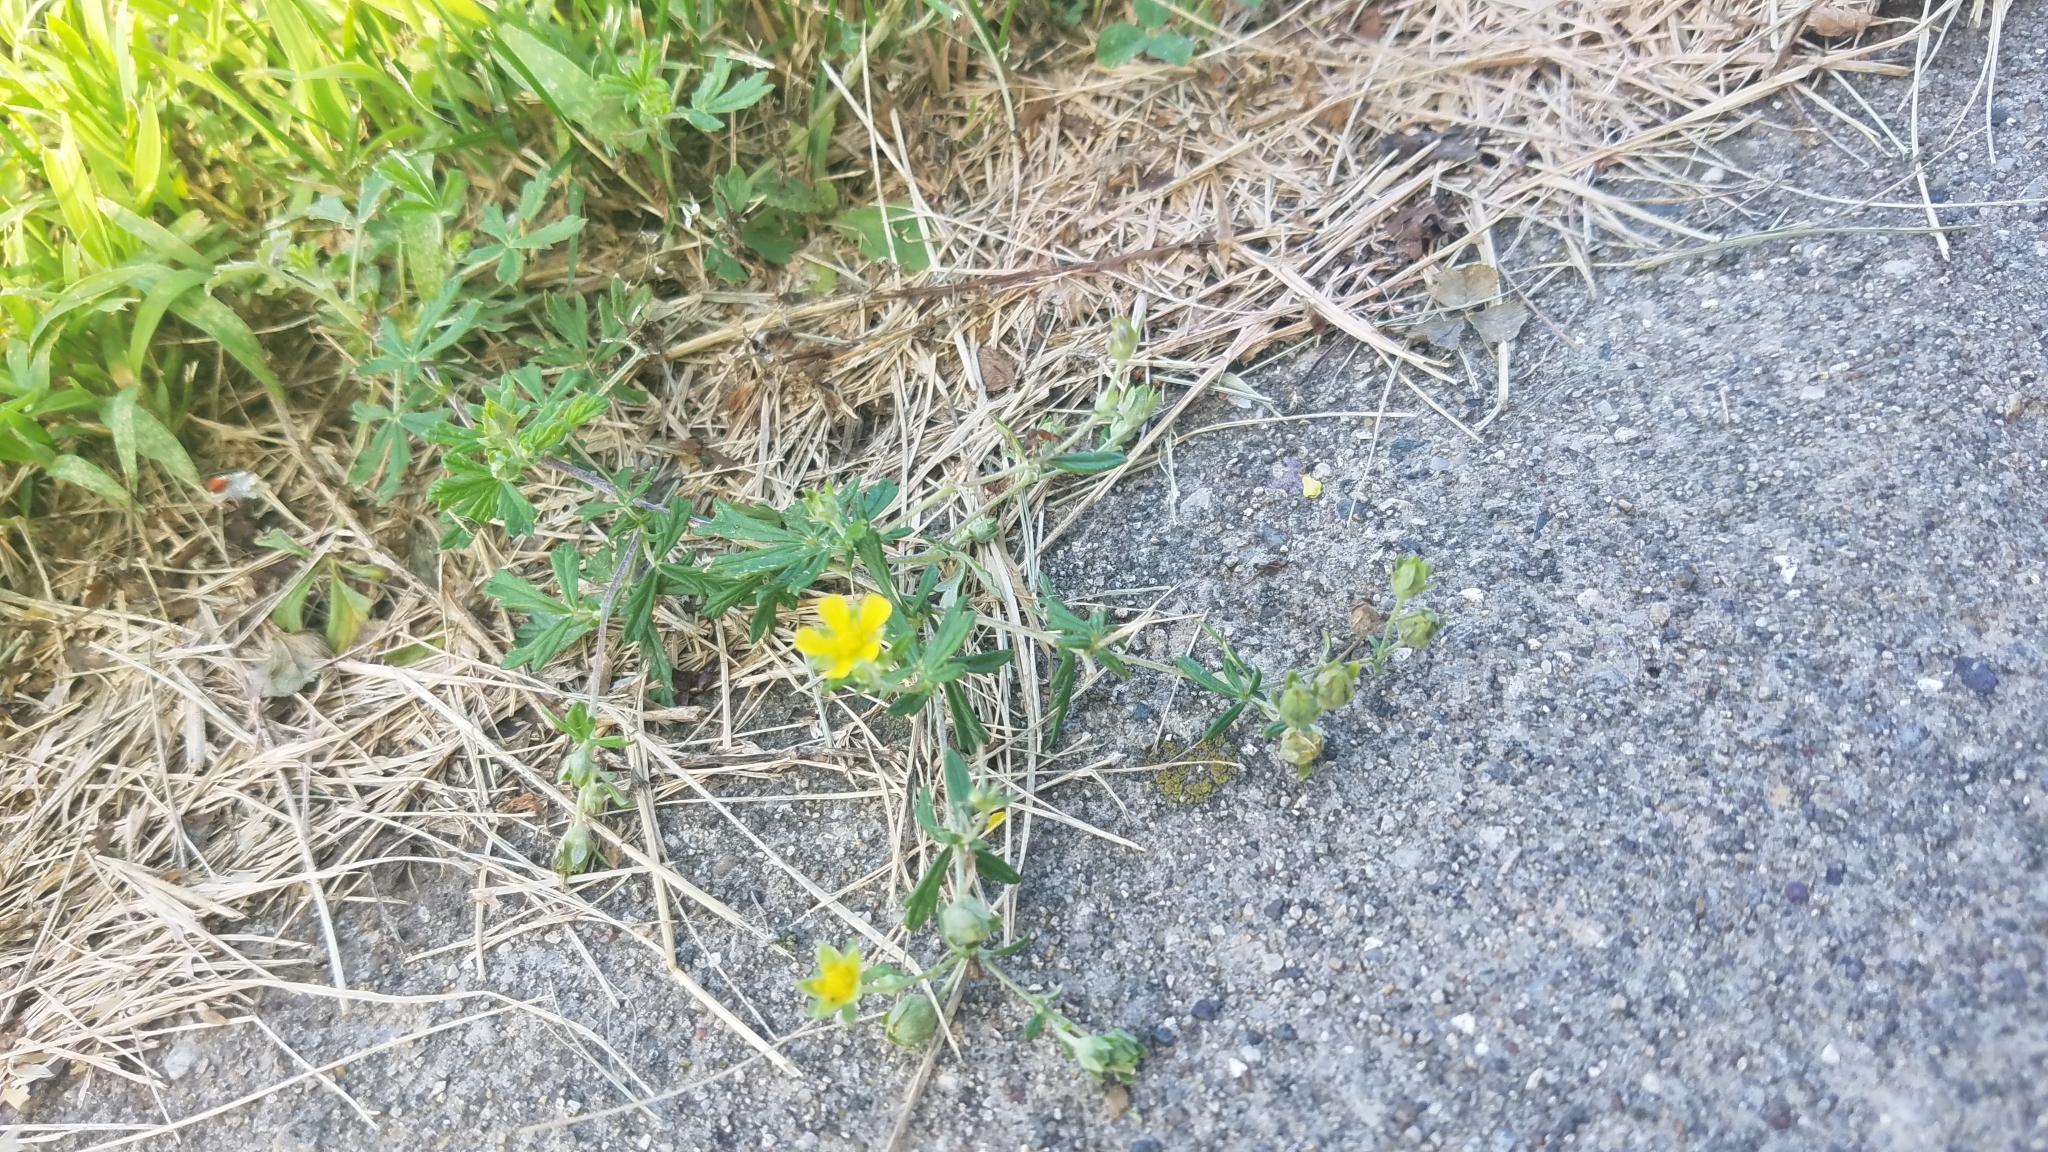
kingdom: Plantae
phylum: Tracheophyta
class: Magnoliopsida
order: Rosales
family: Rosaceae
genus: Potentilla
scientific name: Potentilla argentea
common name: Hoary cinquefoil
